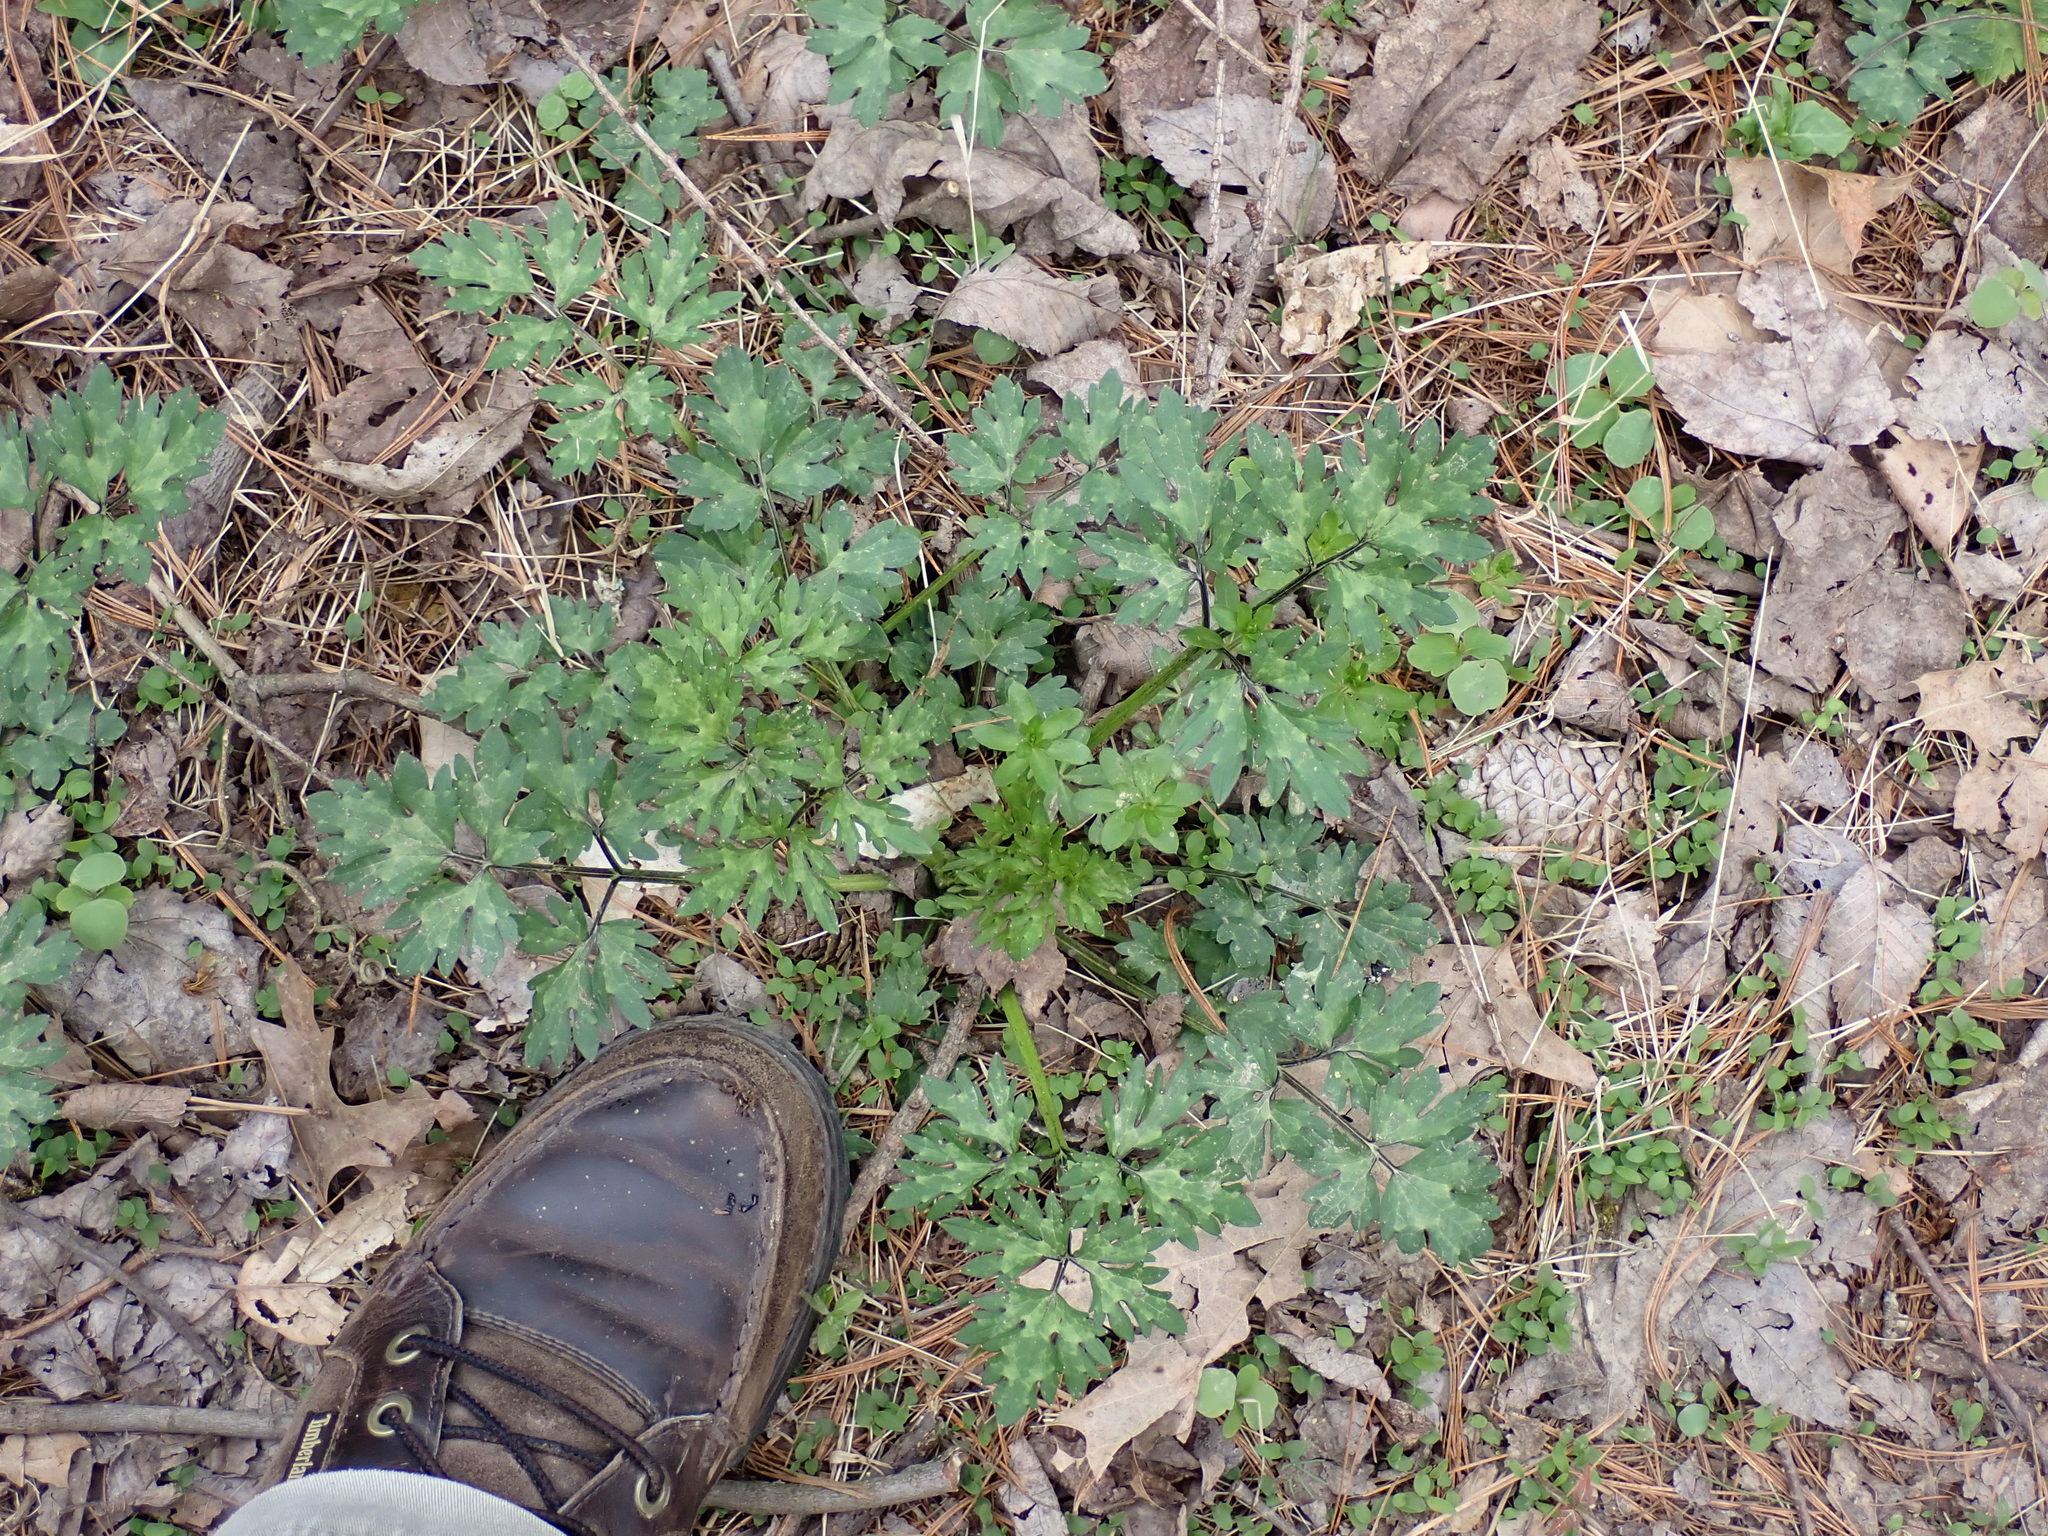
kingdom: Plantae
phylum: Tracheophyta
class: Magnoliopsida
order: Ranunculales
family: Ranunculaceae
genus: Ranunculus
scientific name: Ranunculus repens
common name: Creeping buttercup
